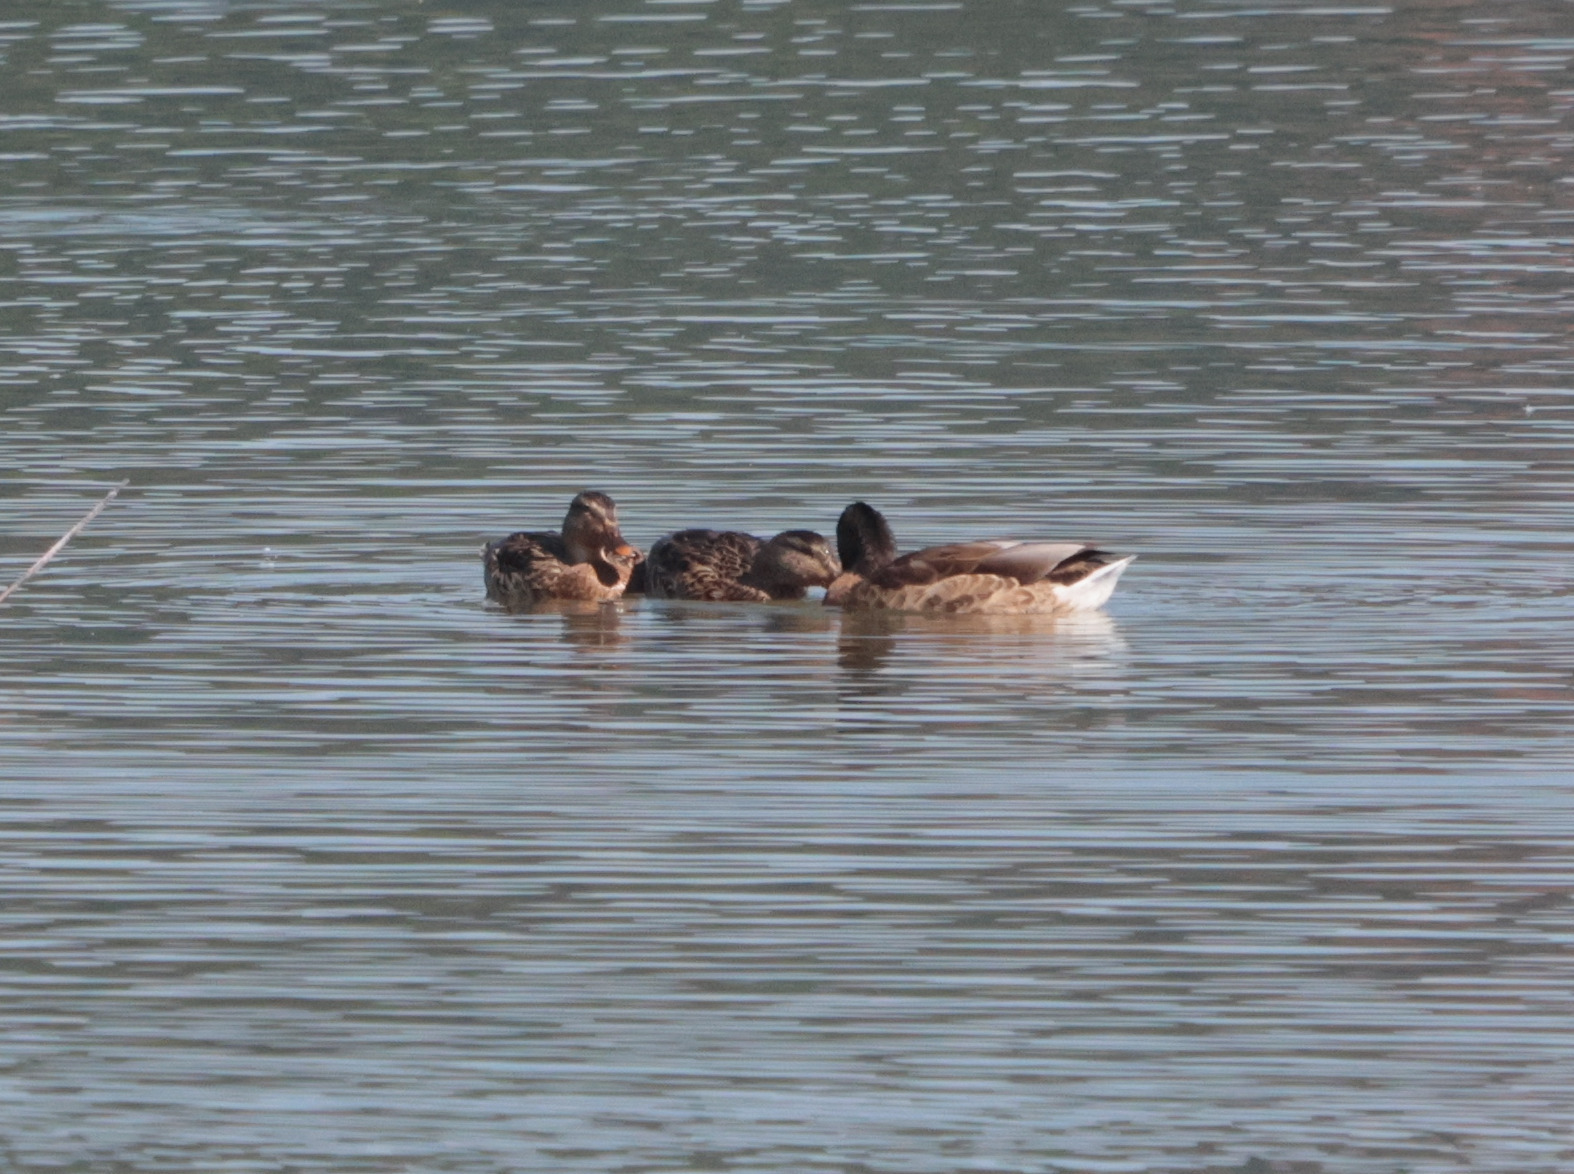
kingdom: Animalia
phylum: Chordata
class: Aves
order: Anseriformes
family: Anatidae
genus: Anas
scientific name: Anas platyrhynchos
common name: Mallard
